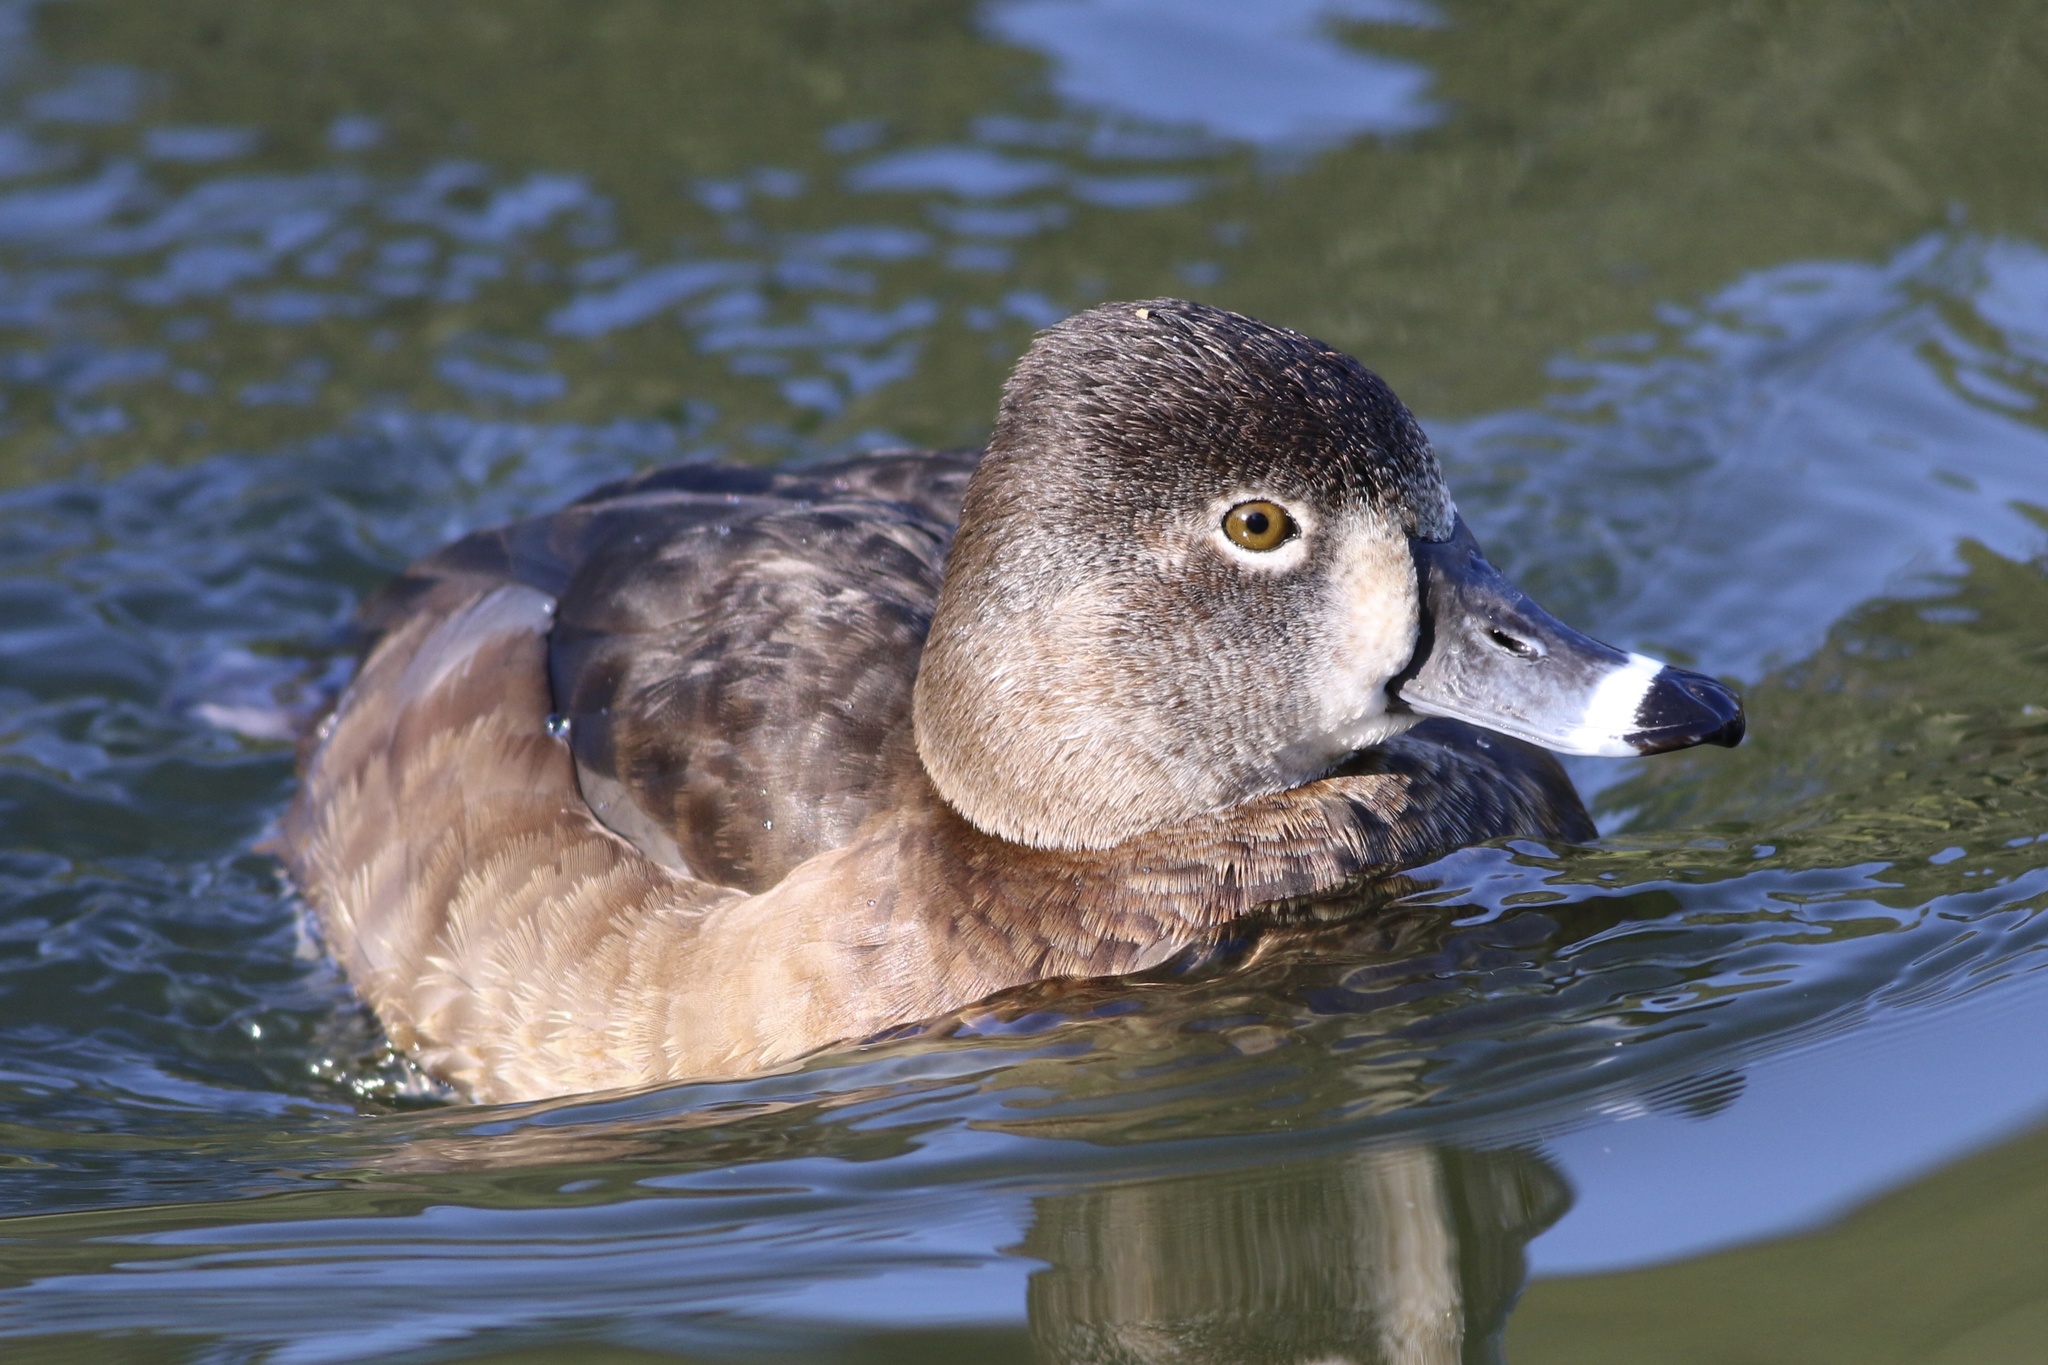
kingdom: Animalia
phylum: Chordata
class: Aves
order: Anseriformes
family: Anatidae
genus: Aythya
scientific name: Aythya collaris
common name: Ring-necked duck
